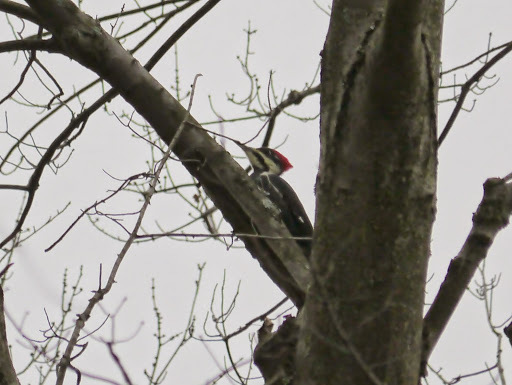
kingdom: Animalia
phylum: Chordata
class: Aves
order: Piciformes
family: Picidae
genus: Dryocopus
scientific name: Dryocopus pileatus
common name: Pileated woodpecker
